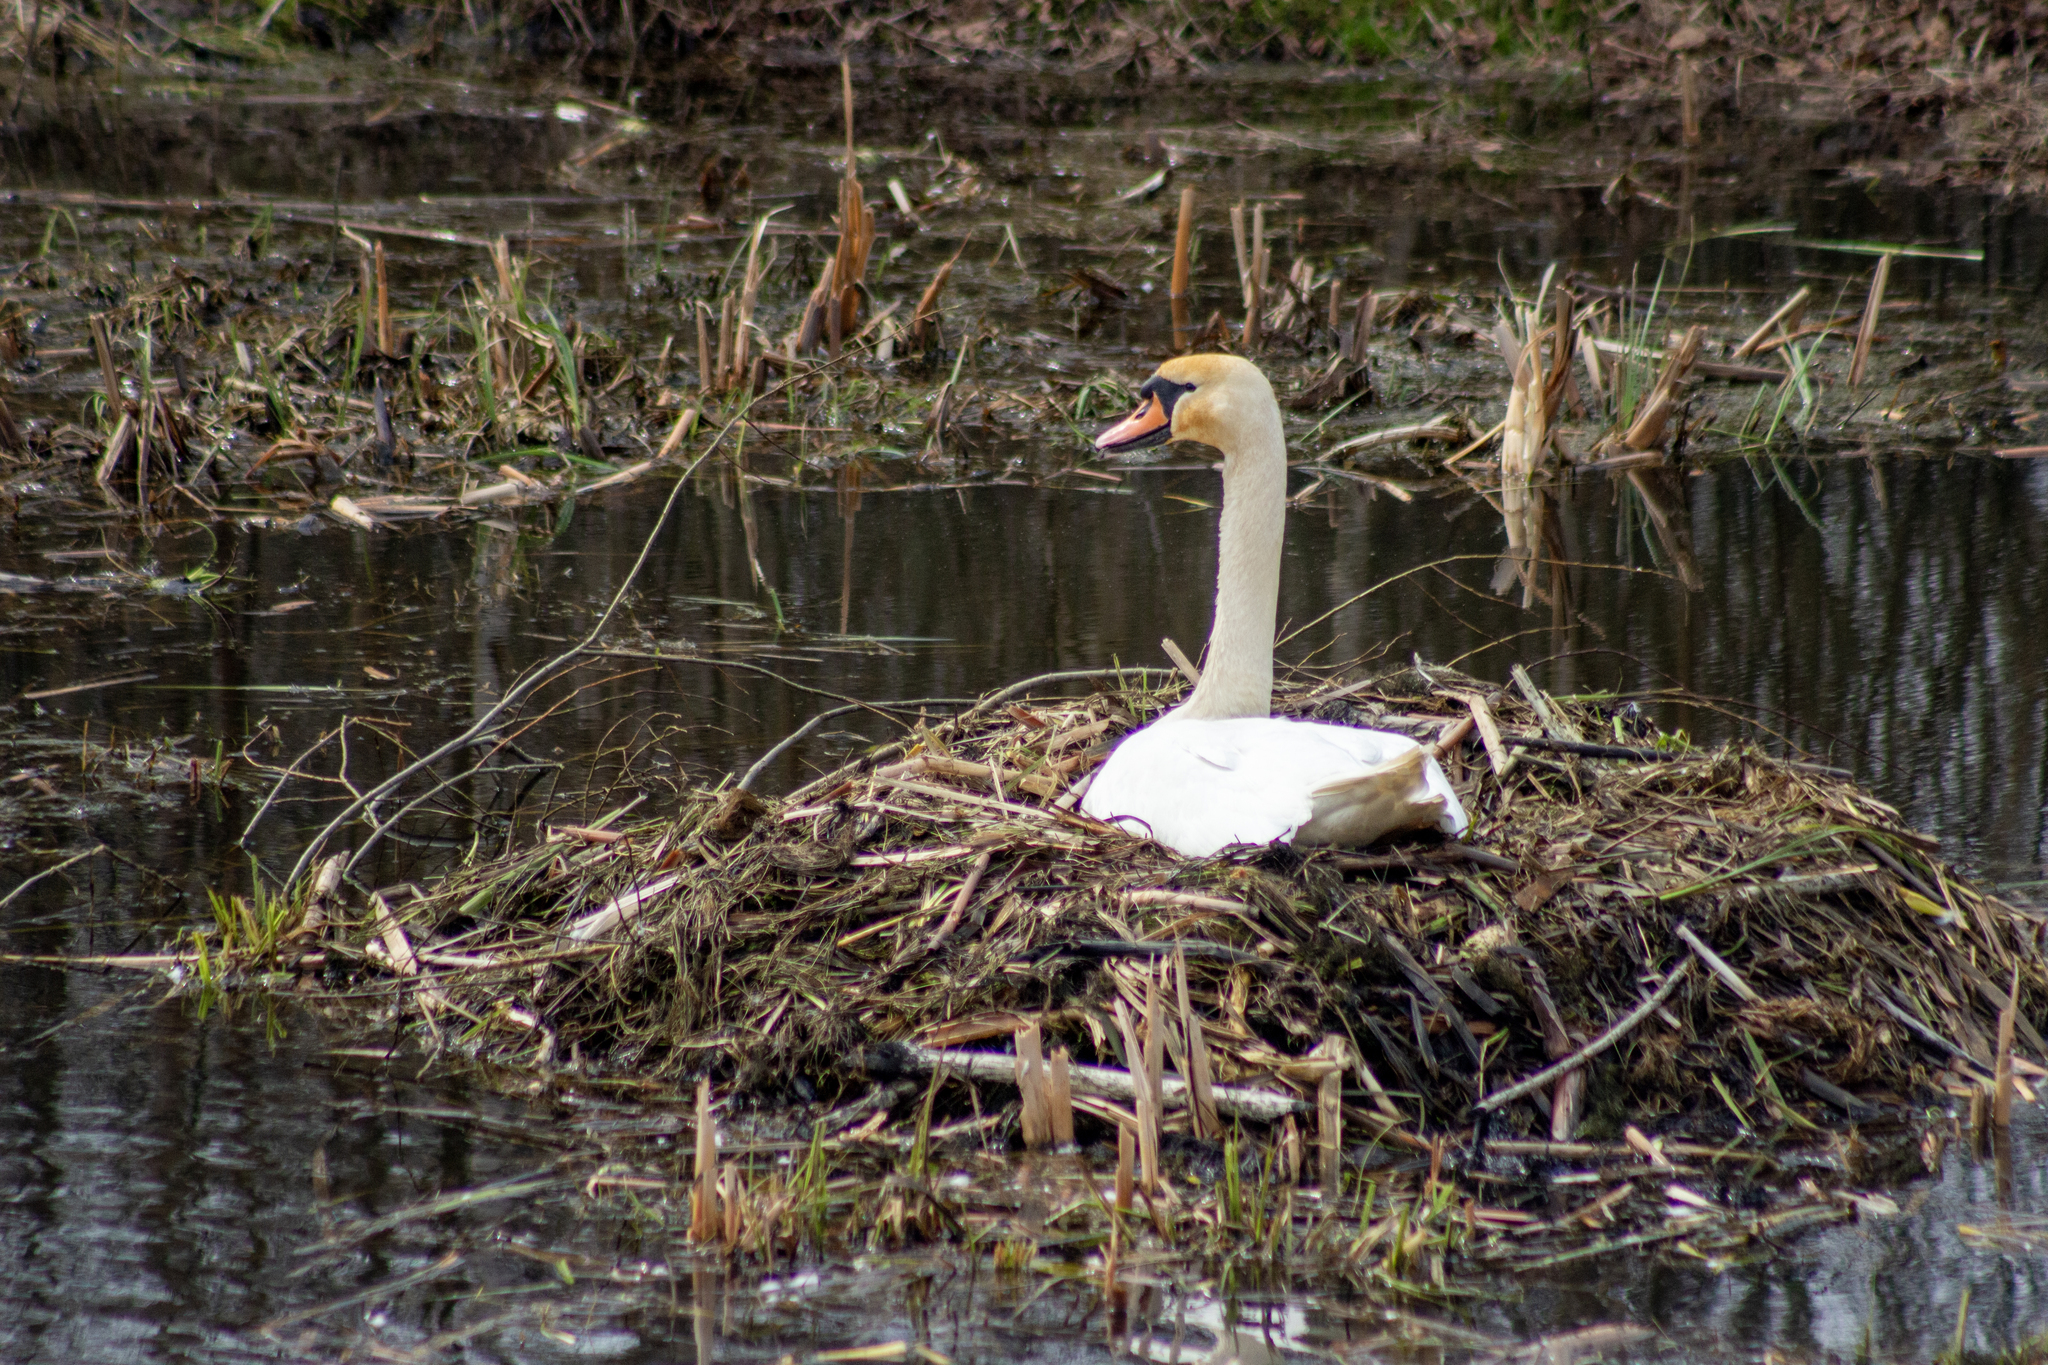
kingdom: Animalia
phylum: Chordata
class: Aves
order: Anseriformes
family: Anatidae
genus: Cygnus
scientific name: Cygnus olor
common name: Mute swan
